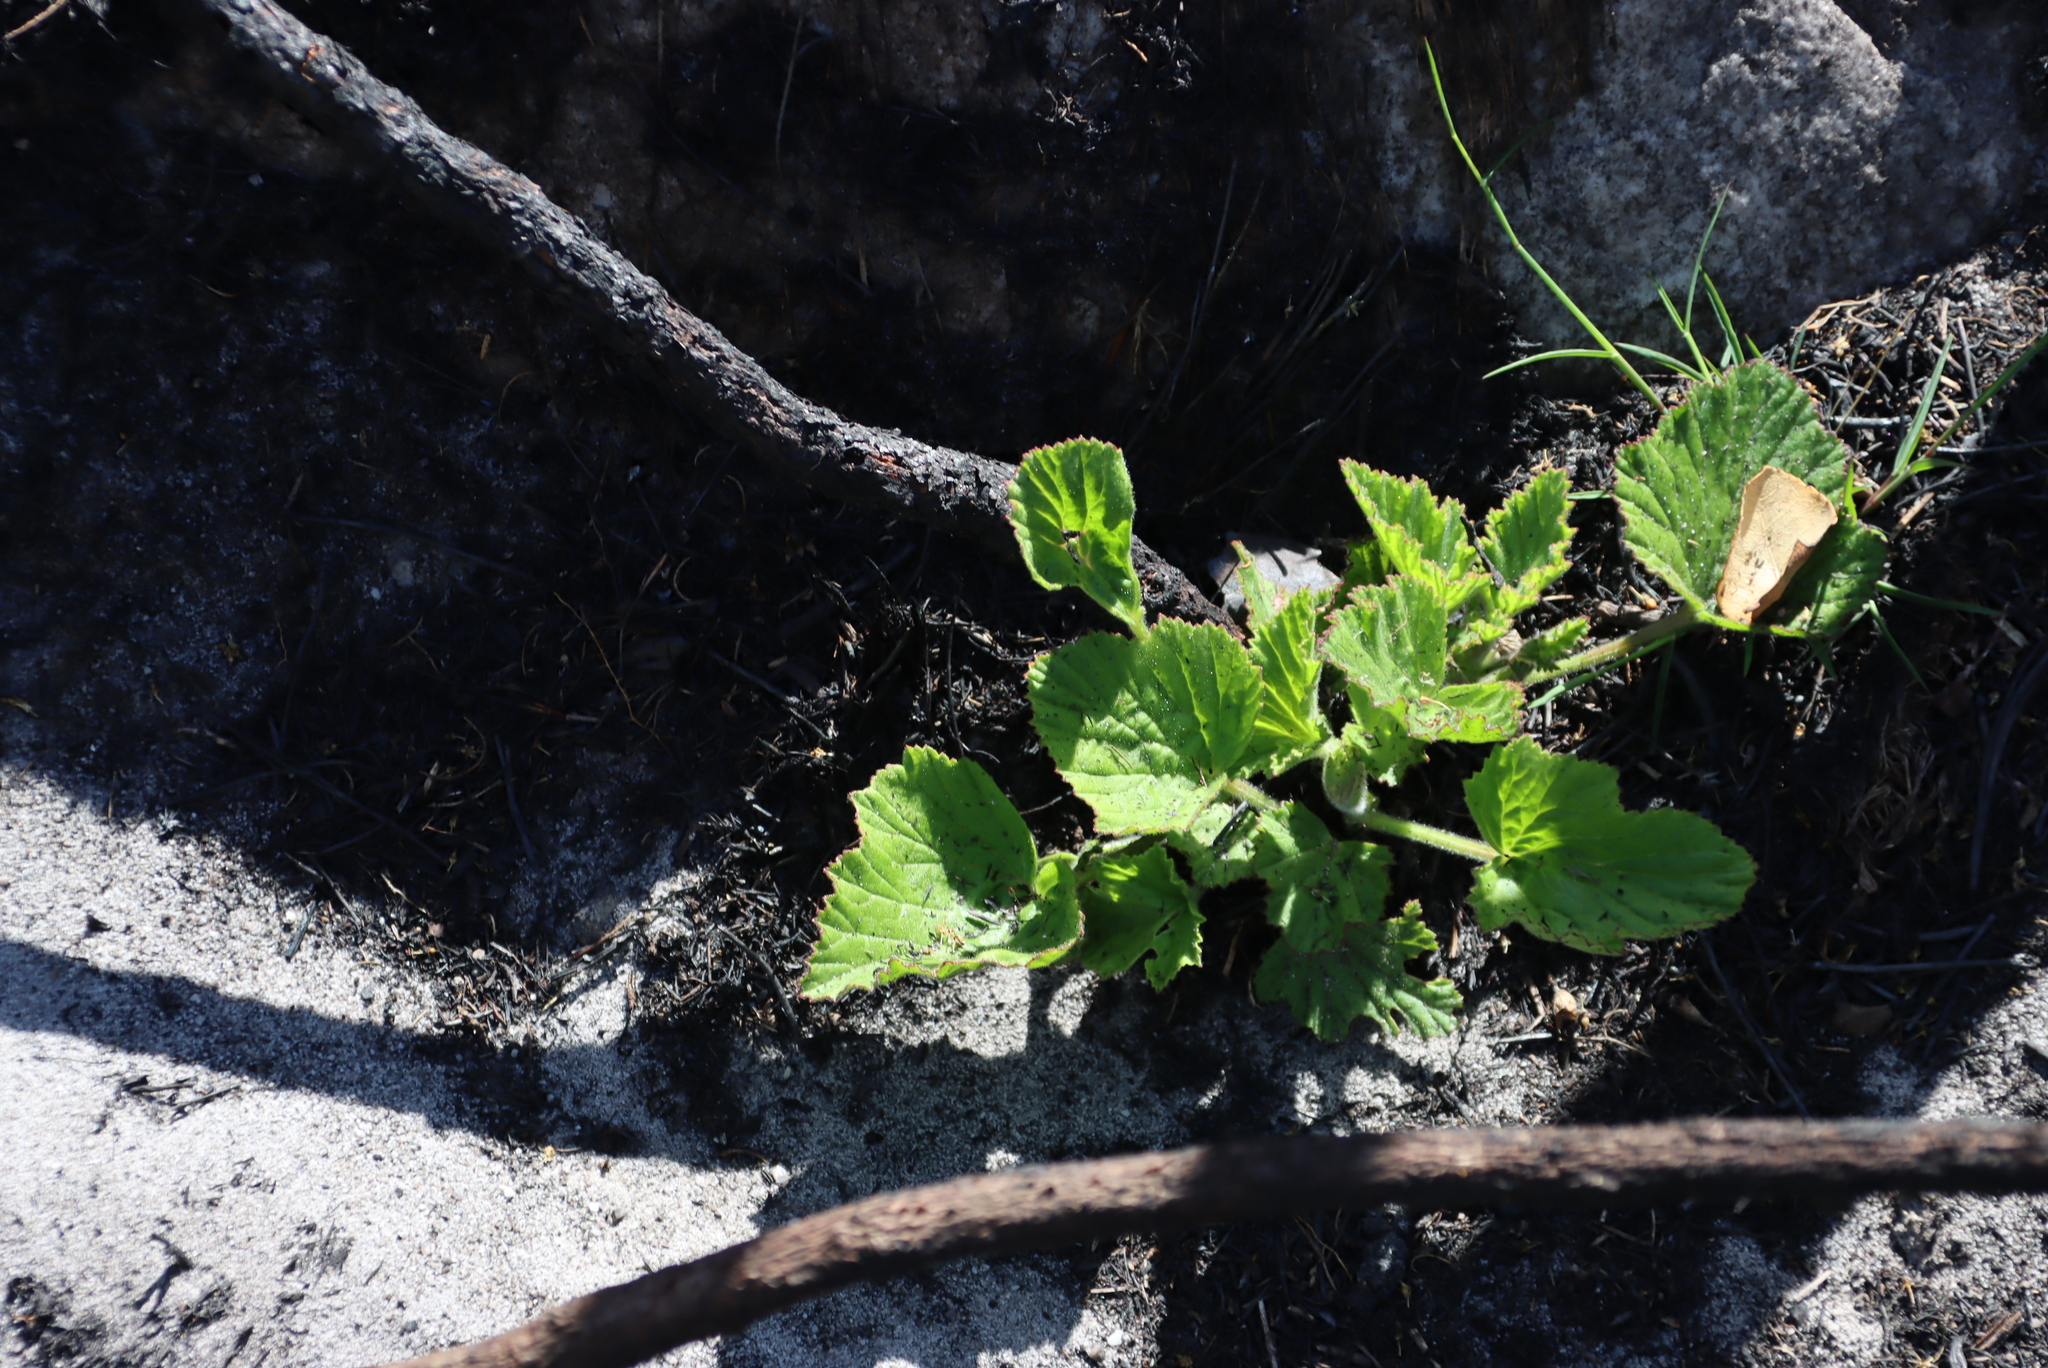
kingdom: Plantae
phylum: Tracheophyta
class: Magnoliopsida
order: Geraniales
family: Geraniaceae
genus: Pelargonium
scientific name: Pelargonium cucullatum
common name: Tree pelargonium
